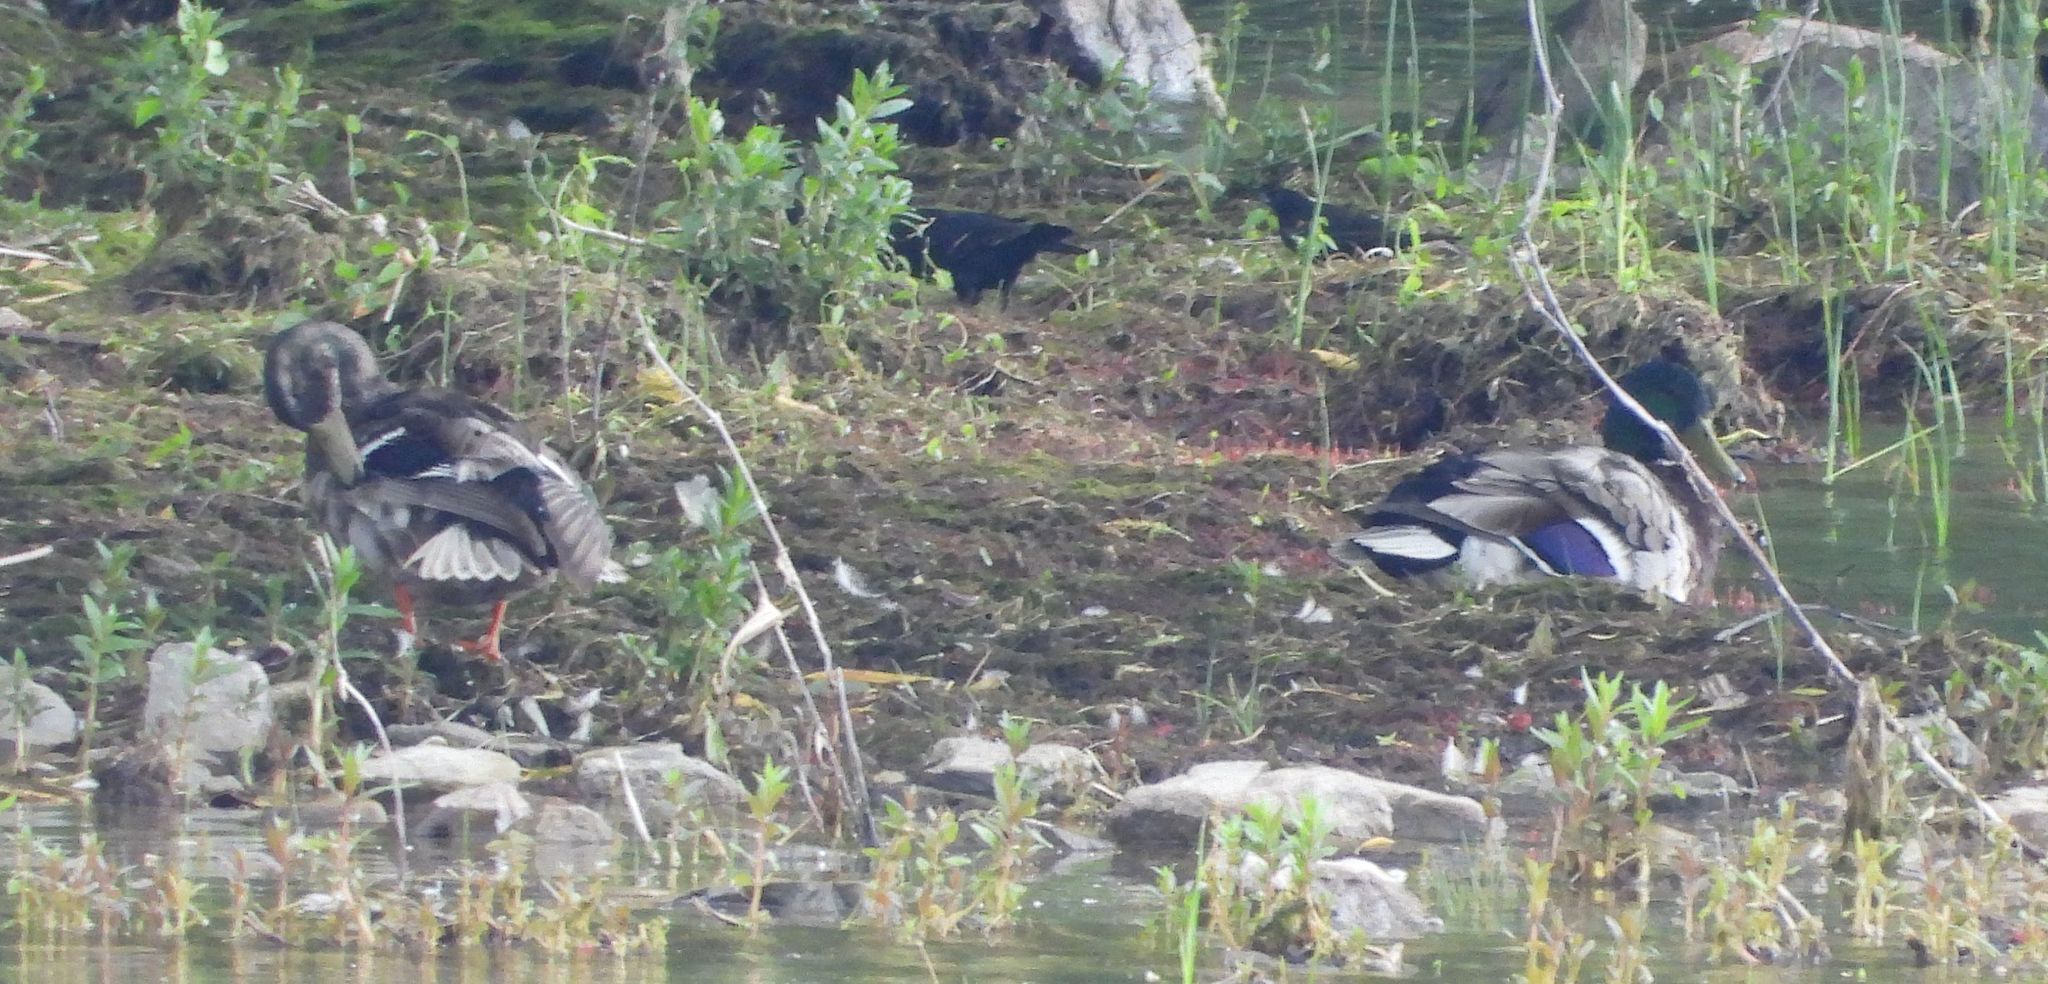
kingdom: Animalia
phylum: Chordata
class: Aves
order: Anseriformes
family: Anatidae
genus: Anas
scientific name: Anas platyrhynchos
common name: Mallard
